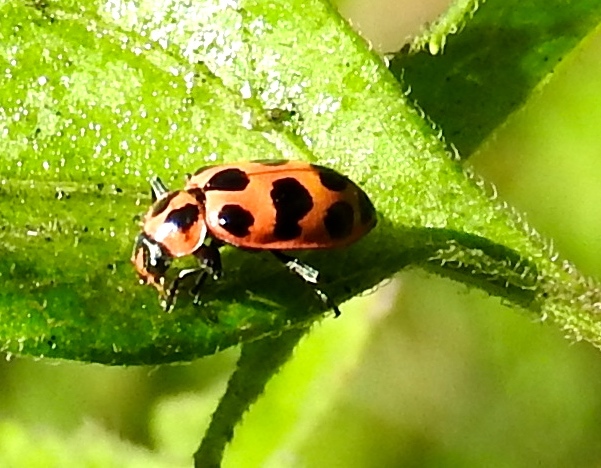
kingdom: Animalia
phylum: Arthropoda
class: Insecta
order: Coleoptera
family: Coccinellidae
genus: Coleomegilla
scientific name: Coleomegilla maculata
